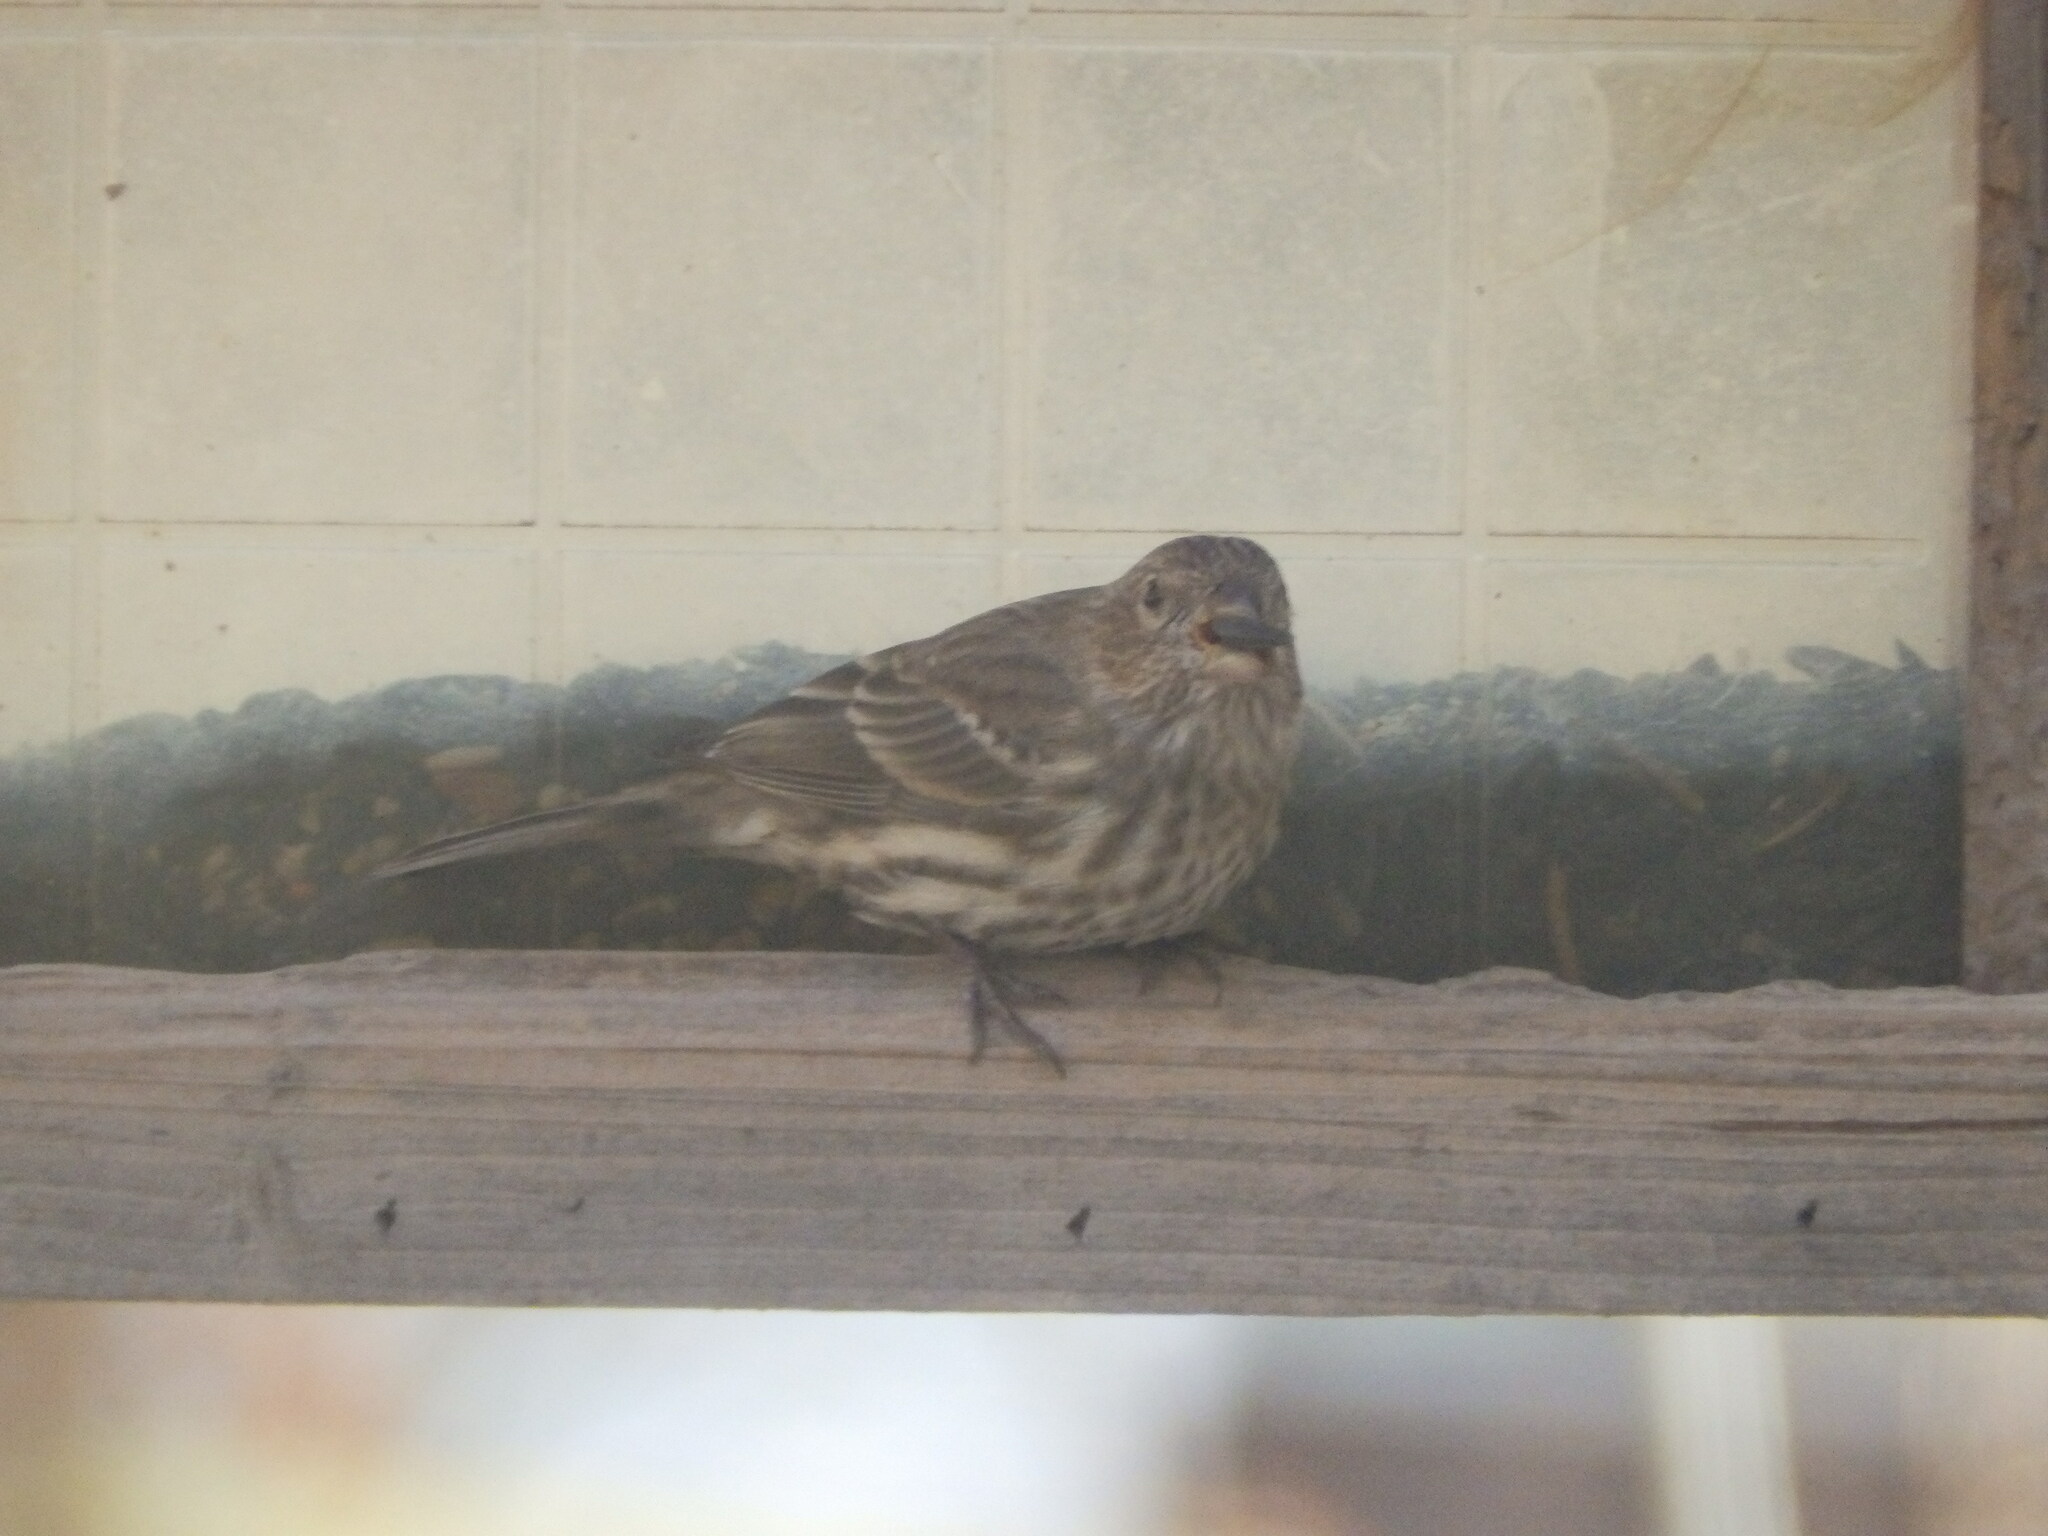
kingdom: Animalia
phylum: Chordata
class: Aves
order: Passeriformes
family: Fringillidae
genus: Haemorhous
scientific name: Haemorhous mexicanus
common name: House finch
